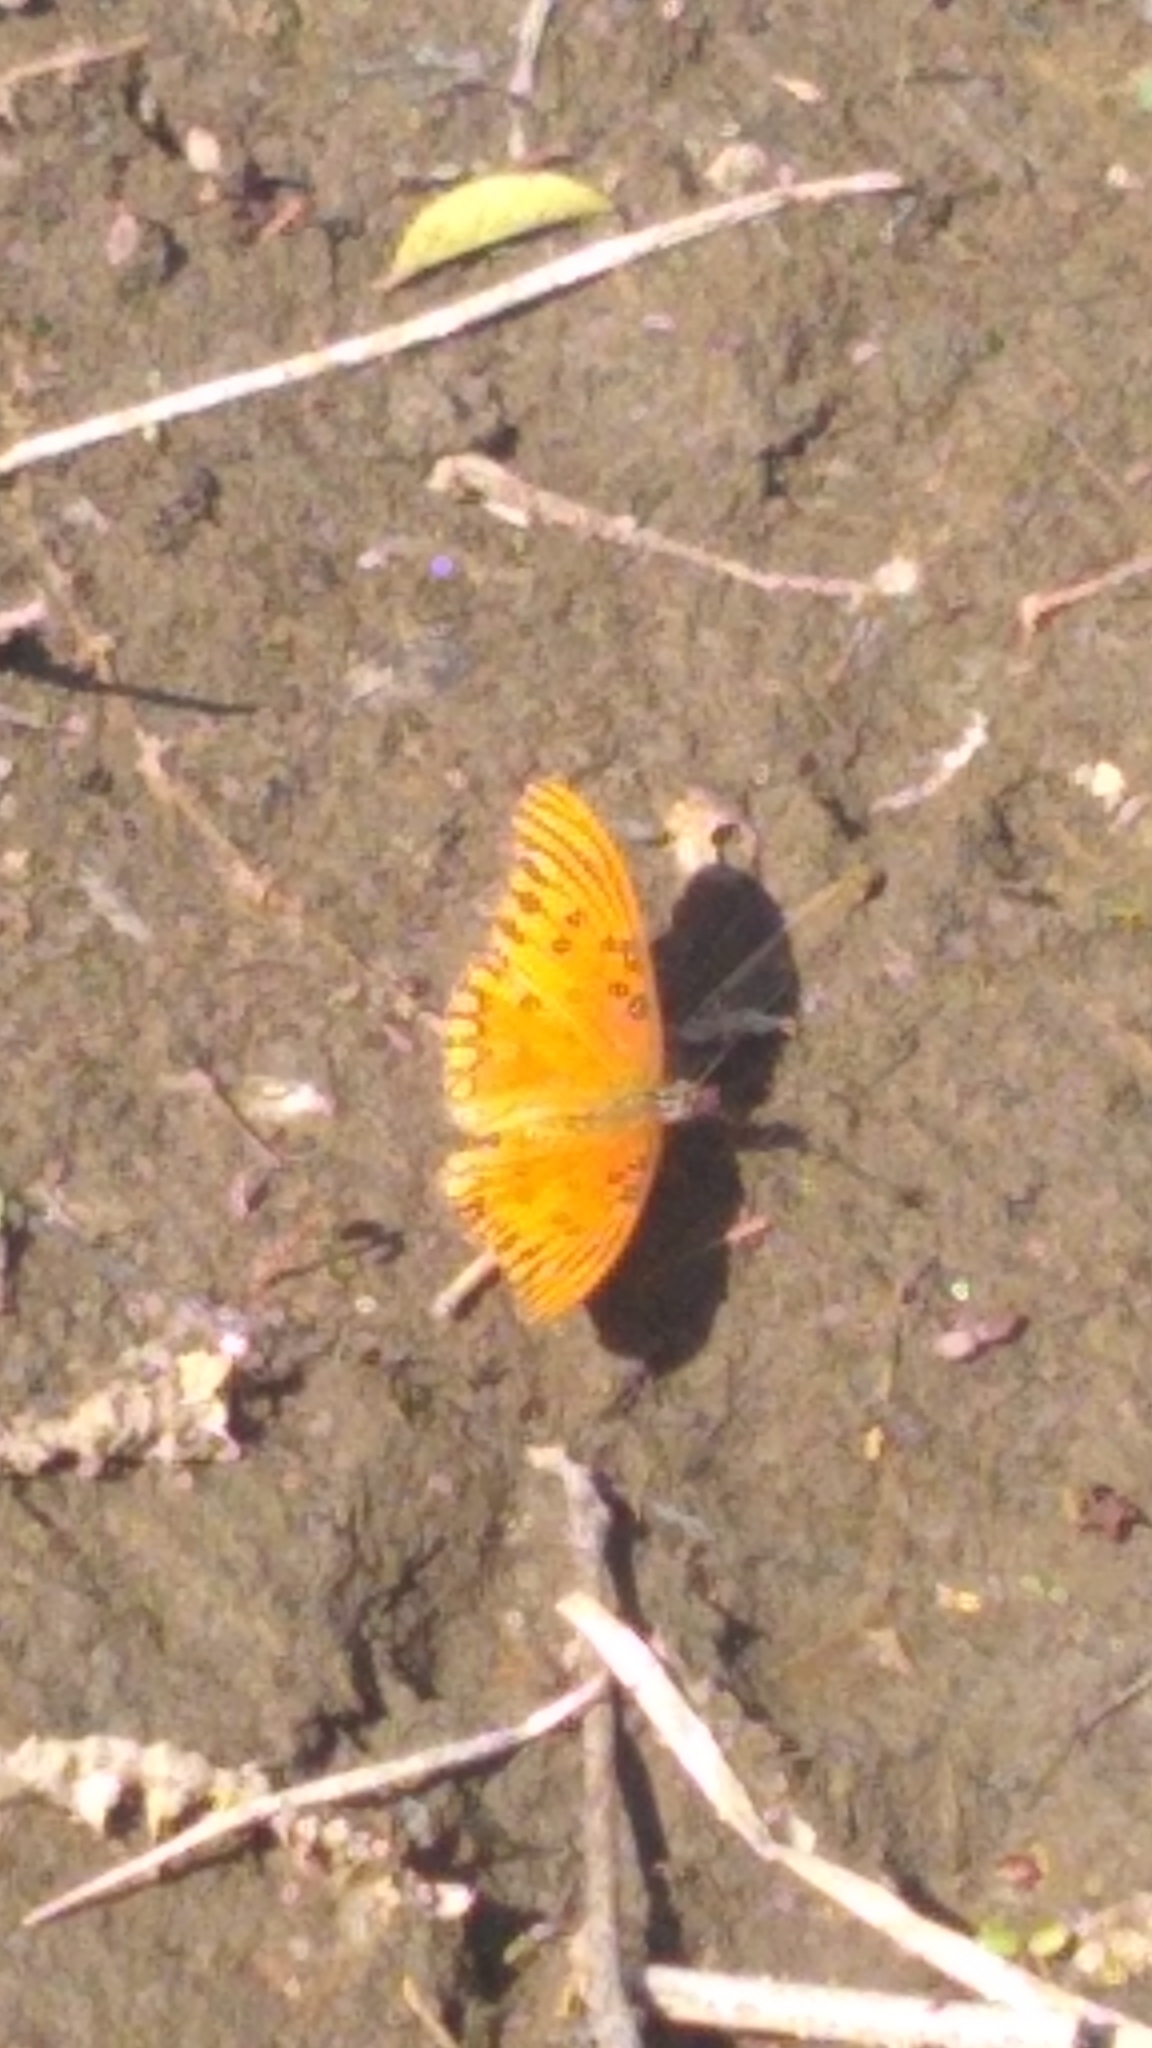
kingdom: Animalia
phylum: Arthropoda
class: Insecta
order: Lepidoptera
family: Nymphalidae
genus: Dione
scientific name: Dione vanillae
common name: Gulf fritillary
